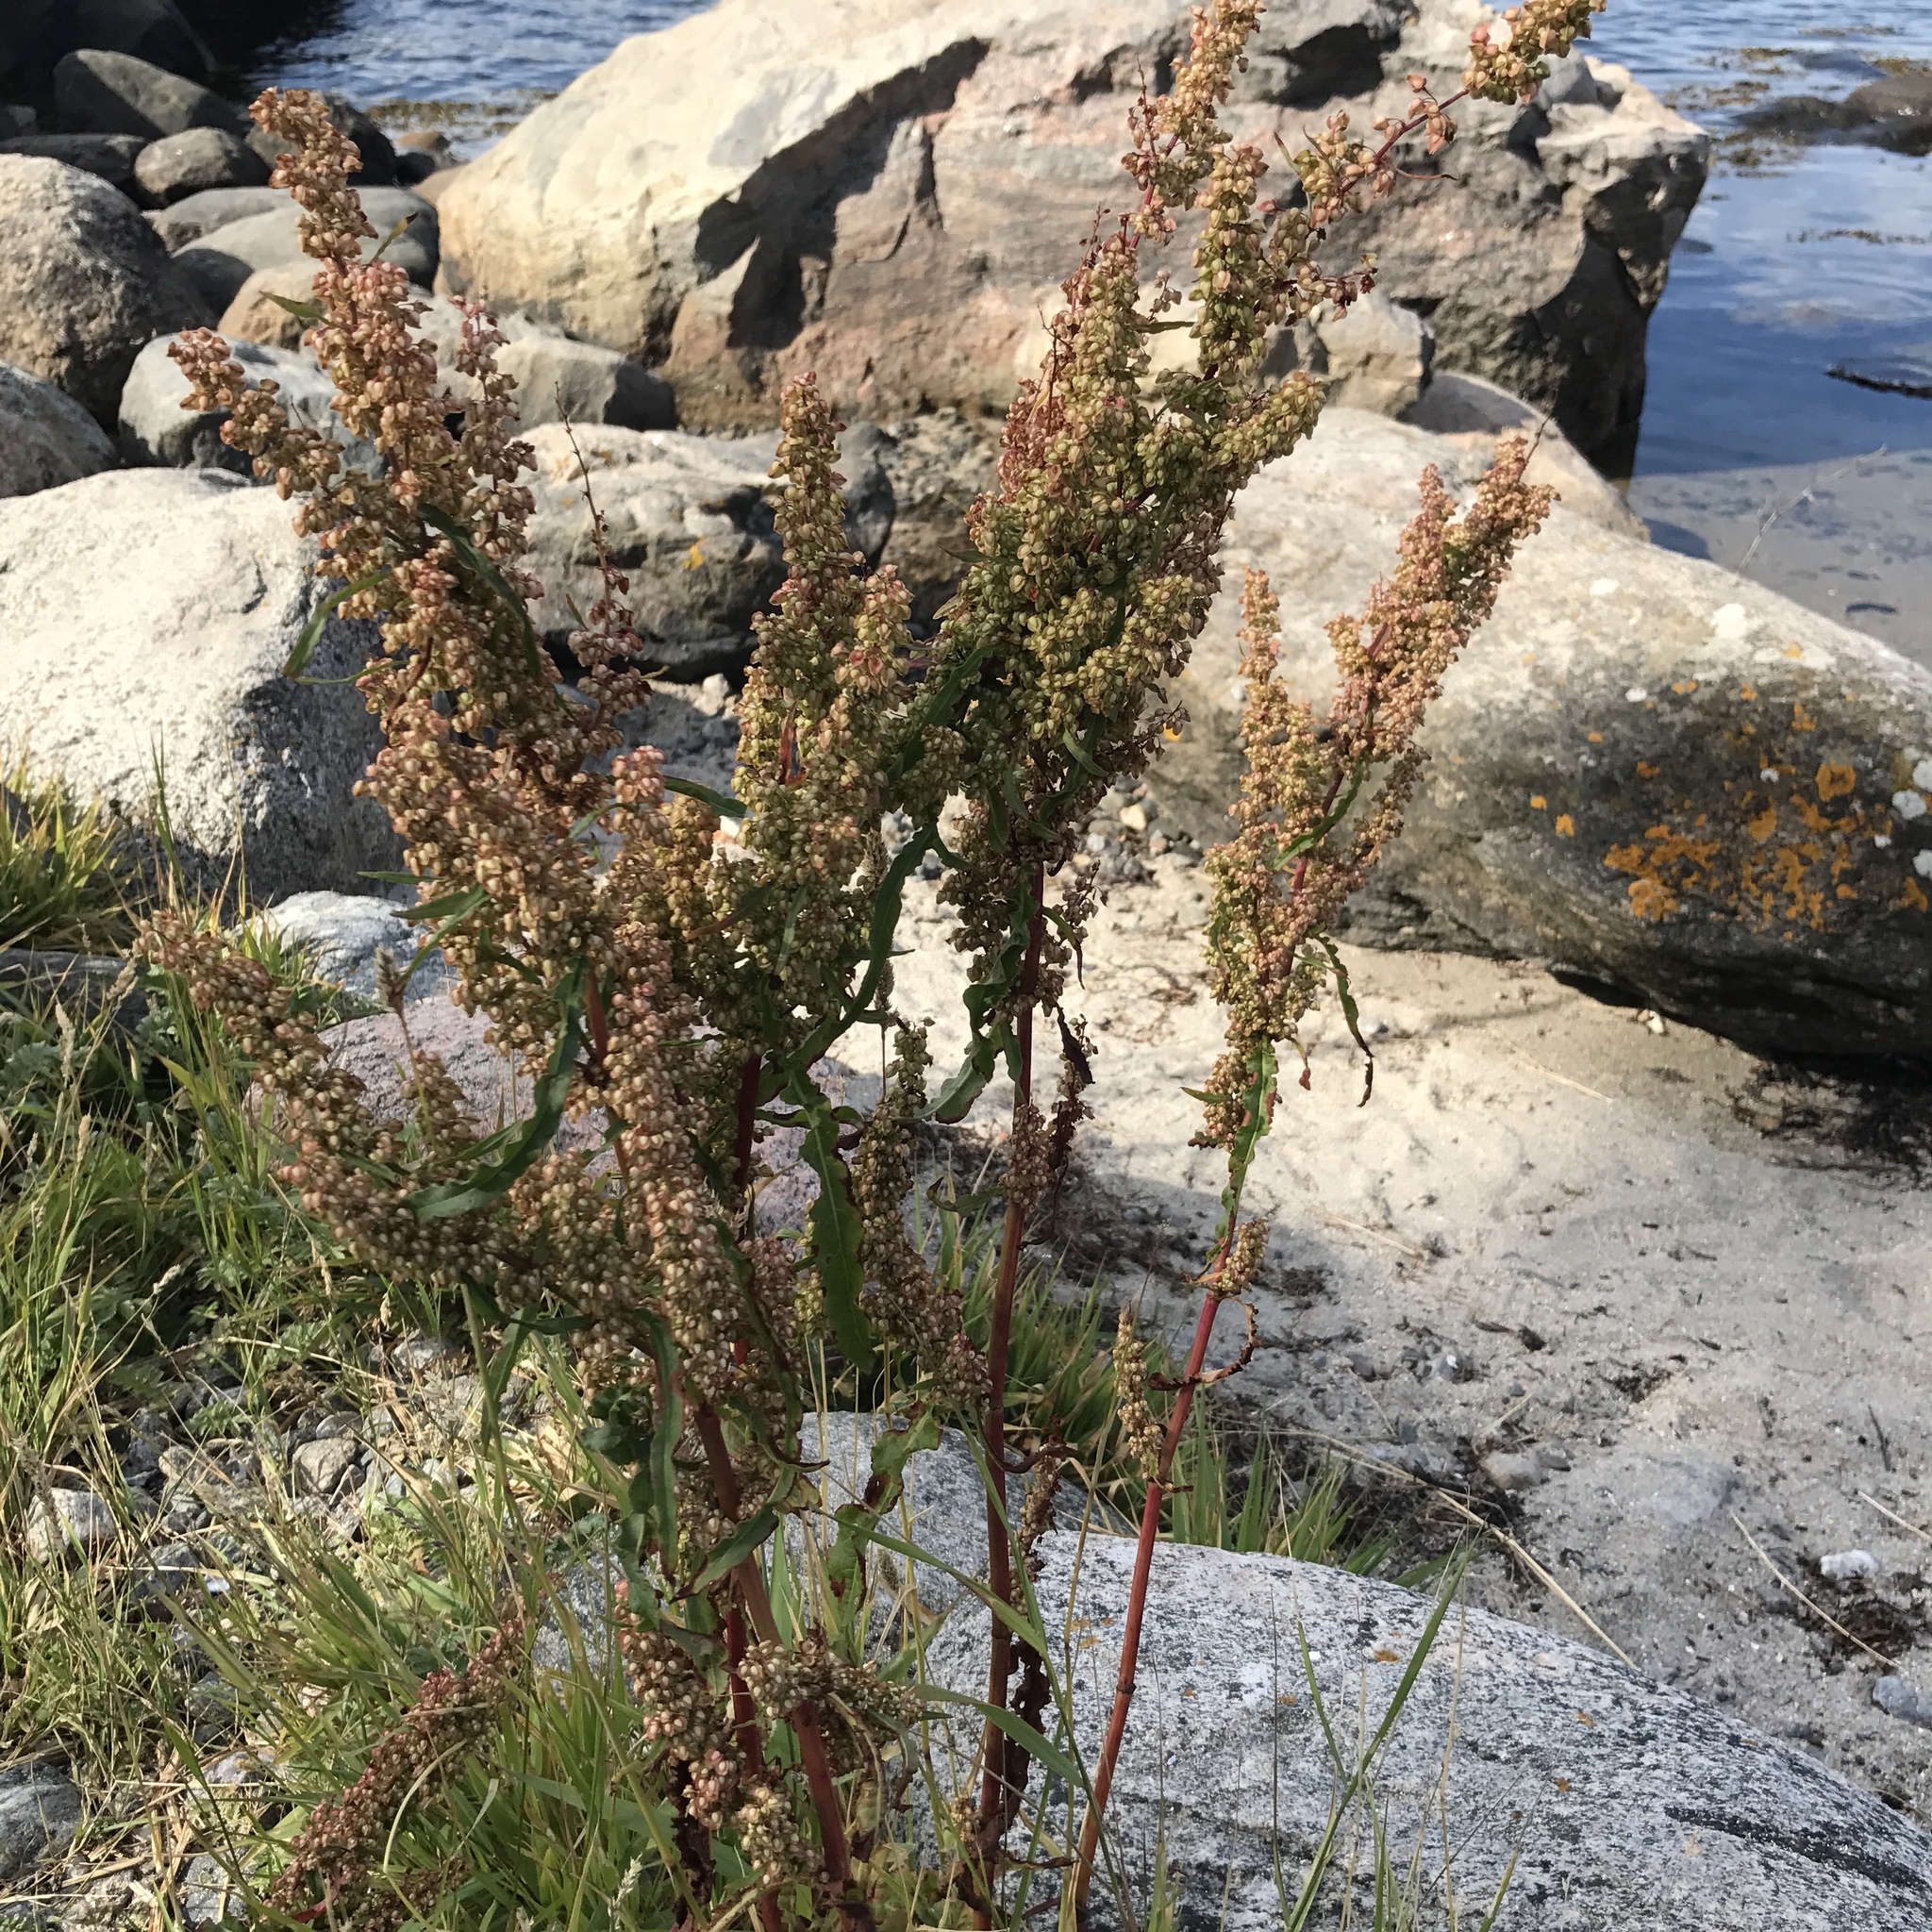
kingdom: Plantae
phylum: Tracheophyta
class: Magnoliopsida
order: Caryophyllales
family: Polygonaceae
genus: Rumex
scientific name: Rumex crispus
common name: Curled dock
